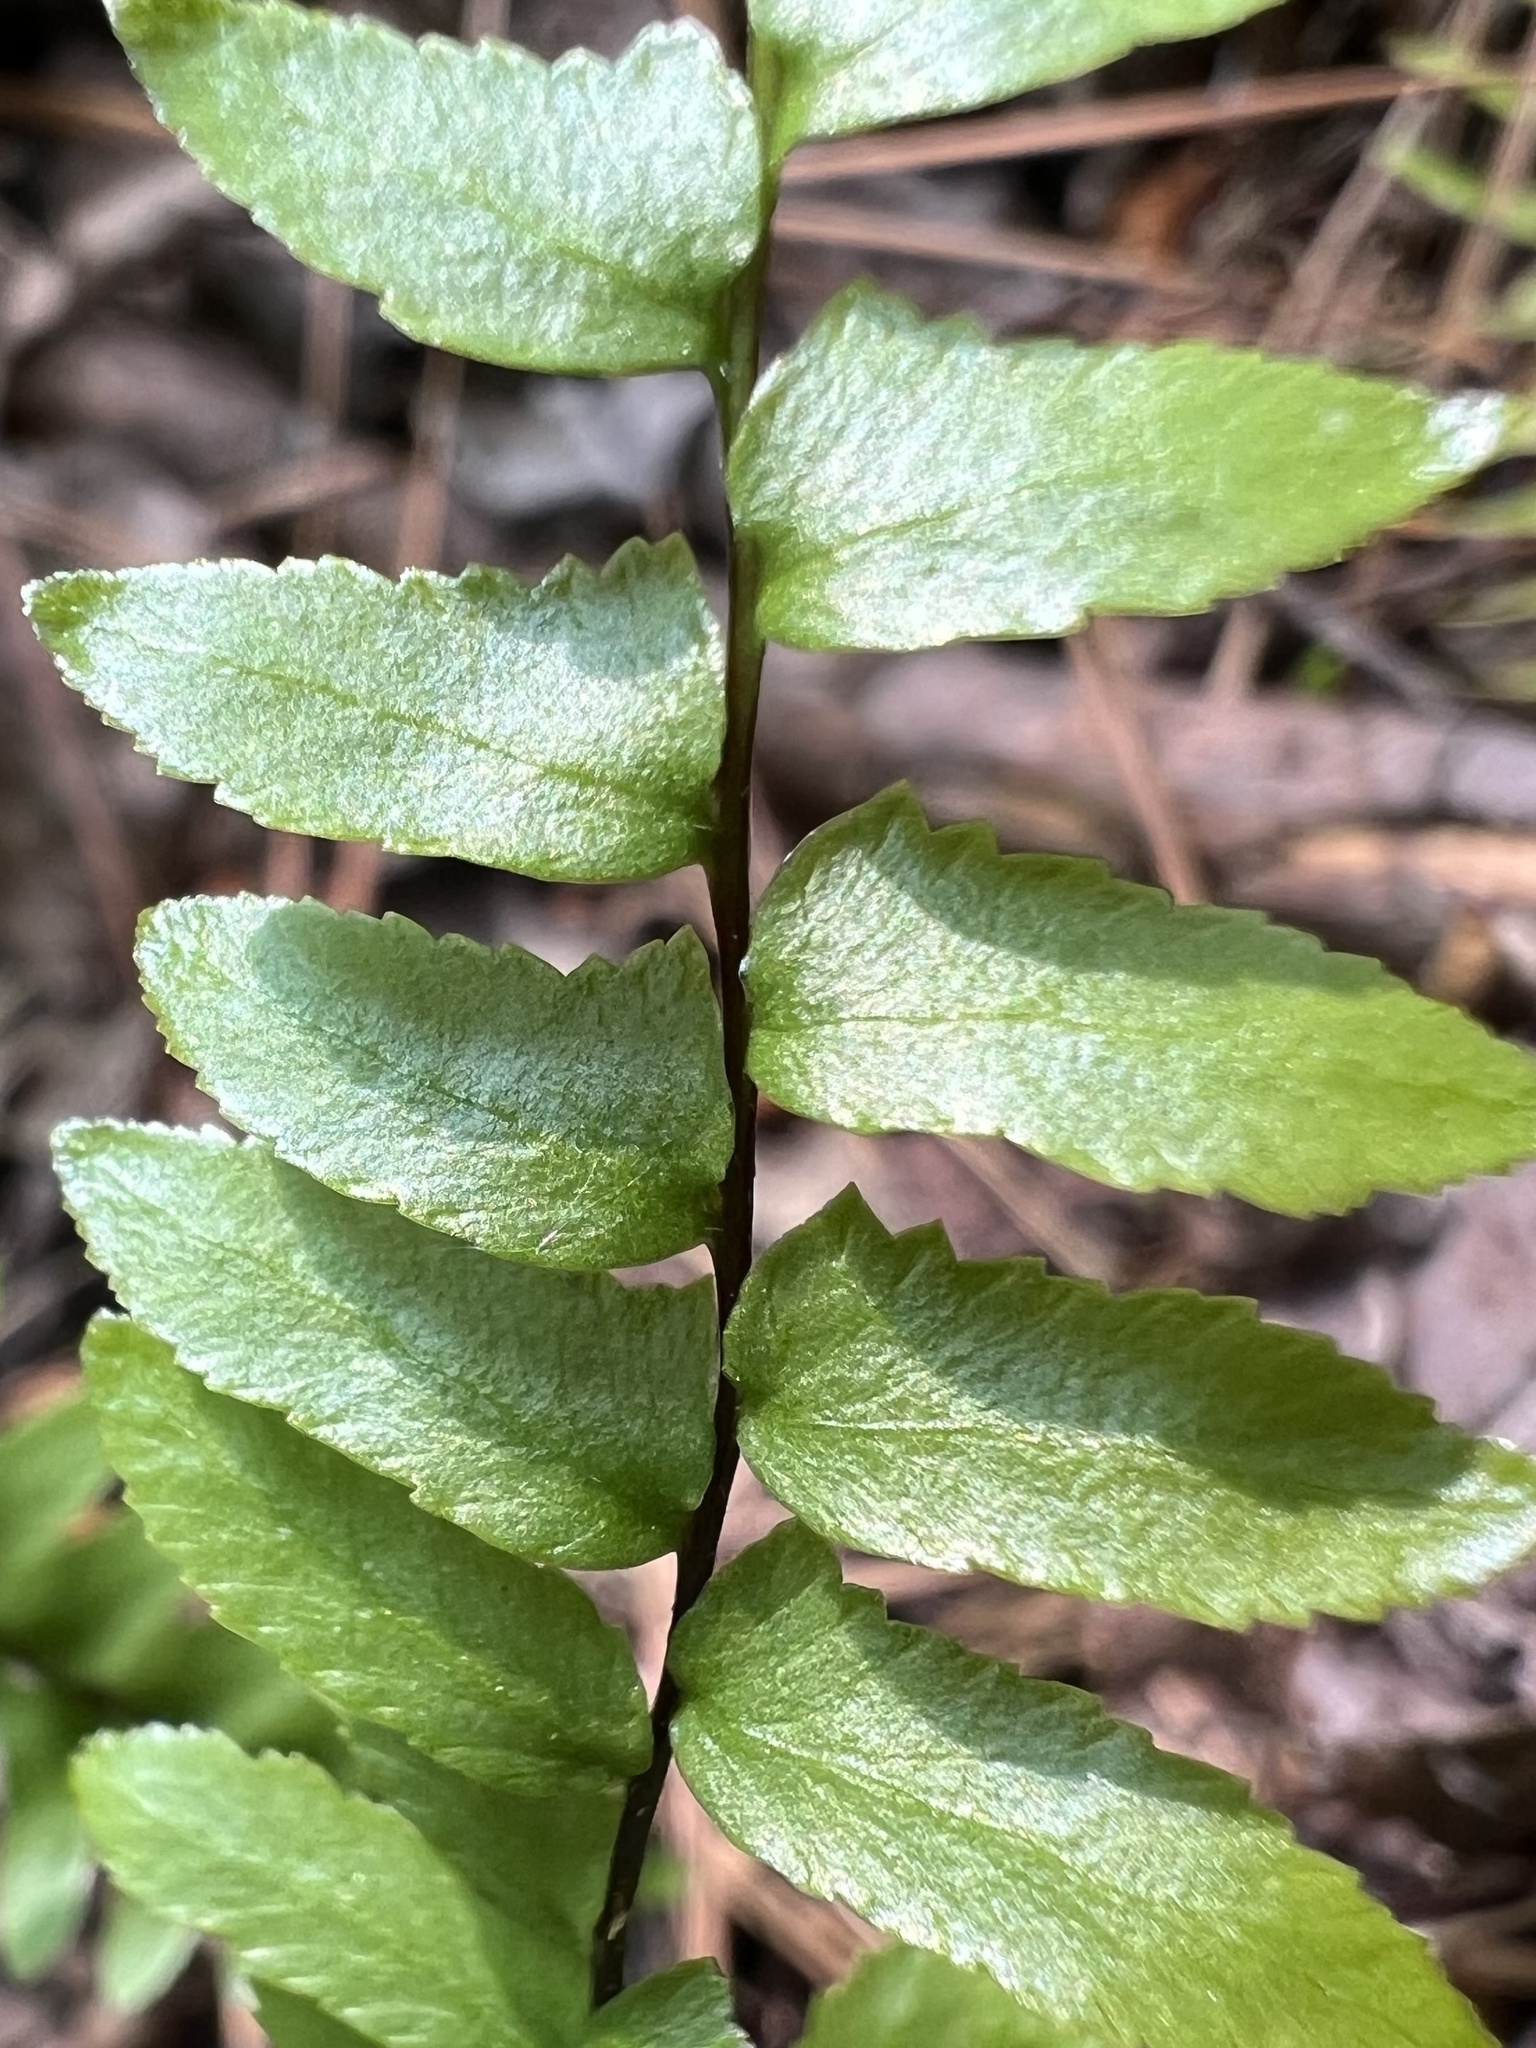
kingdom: Plantae
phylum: Tracheophyta
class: Polypodiopsida
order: Polypodiales
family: Aspleniaceae
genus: Asplenium
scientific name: Asplenium platyneuron
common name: Ebony spleenwort
